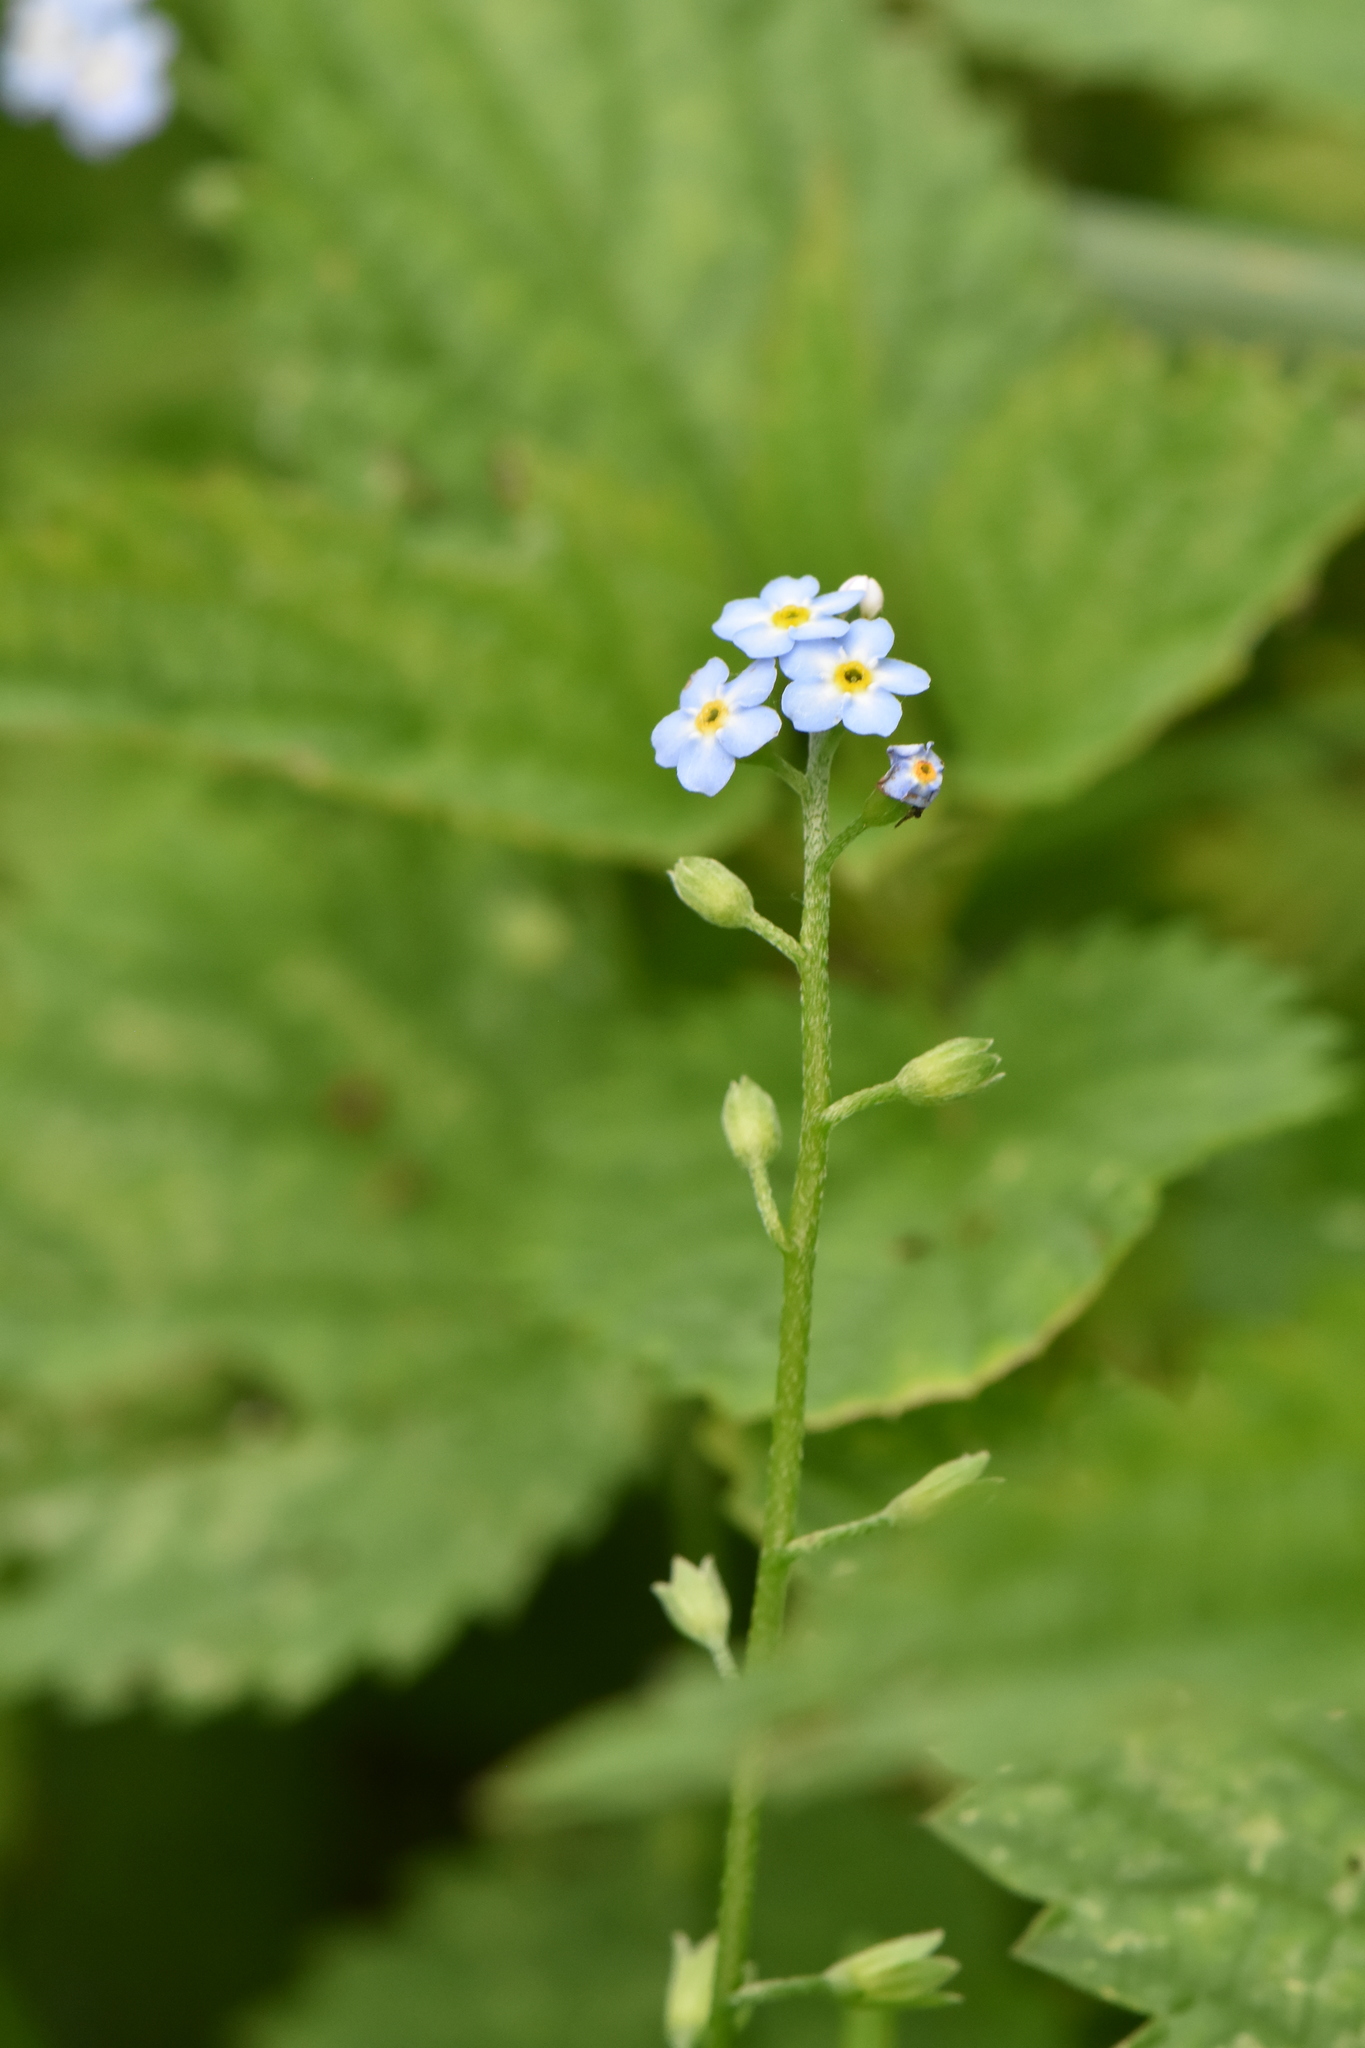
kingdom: Plantae
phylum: Tracheophyta
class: Magnoliopsida
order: Boraginales
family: Boraginaceae
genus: Myosotis
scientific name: Myosotis scorpioides
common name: Water forget-me-not
